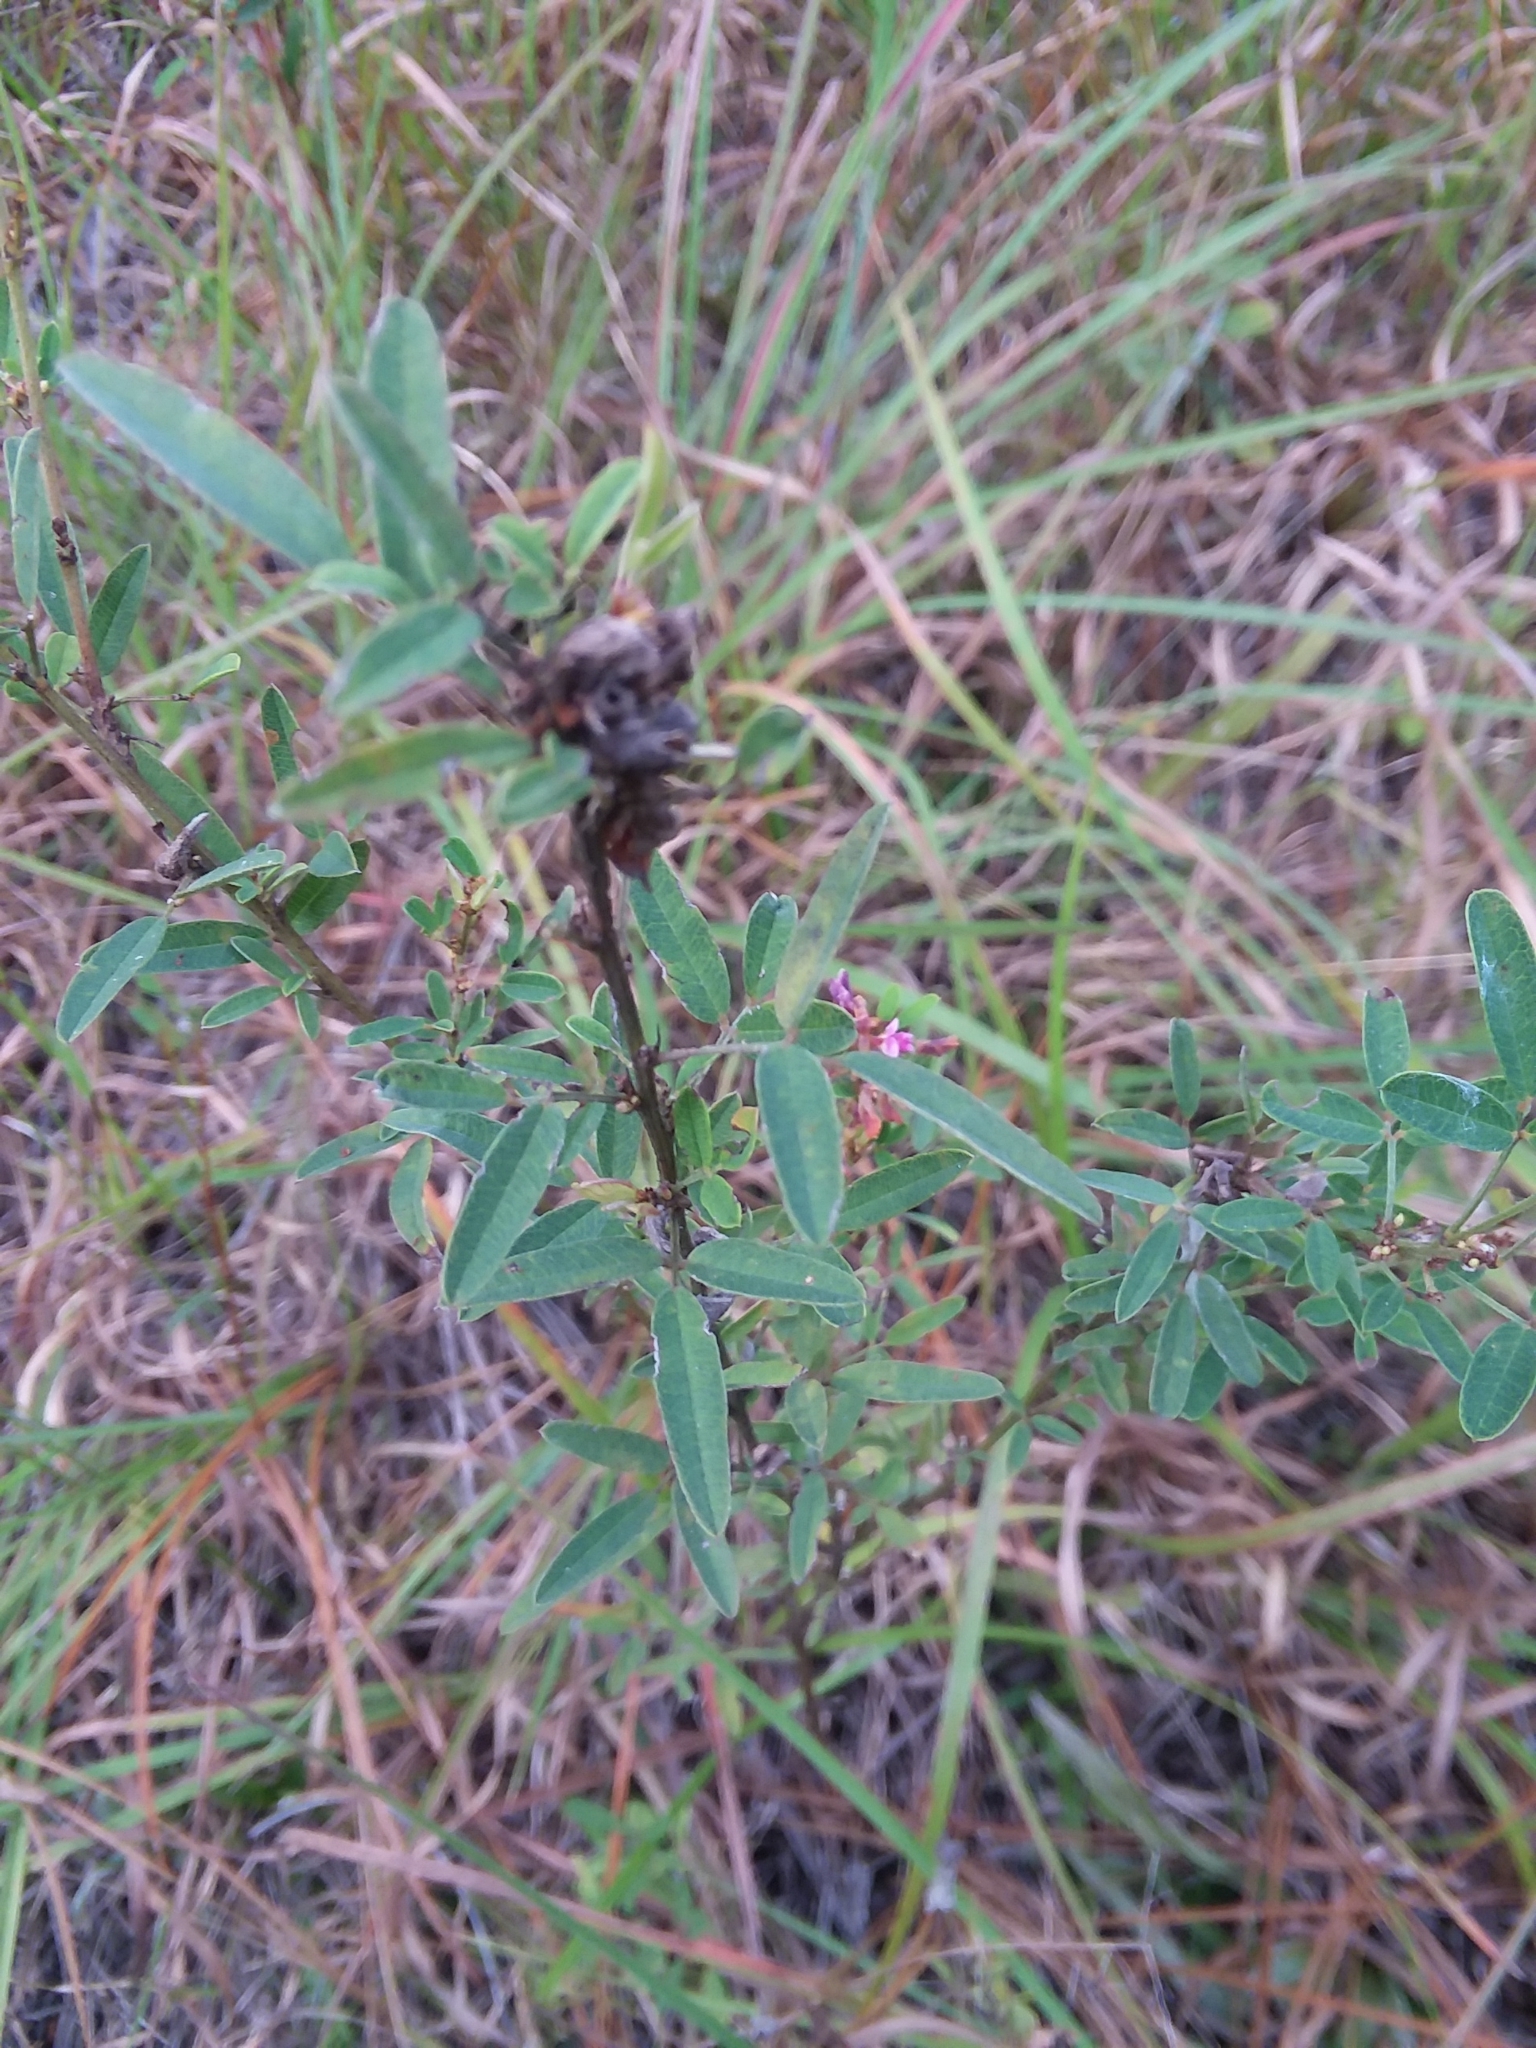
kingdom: Plantae
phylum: Tracheophyta
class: Magnoliopsida
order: Fabales
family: Fabaceae
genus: Lespedeza
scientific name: Lespedeza virginica
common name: Slender bush-clover
